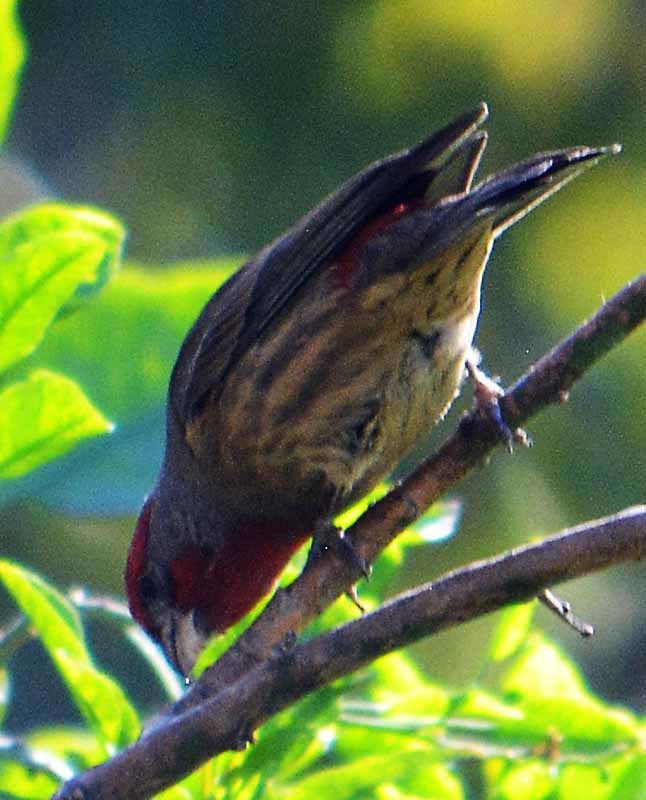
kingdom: Animalia
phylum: Chordata
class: Aves
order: Passeriformes
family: Fringillidae
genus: Haemorhous
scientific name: Haemorhous mexicanus
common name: House finch
